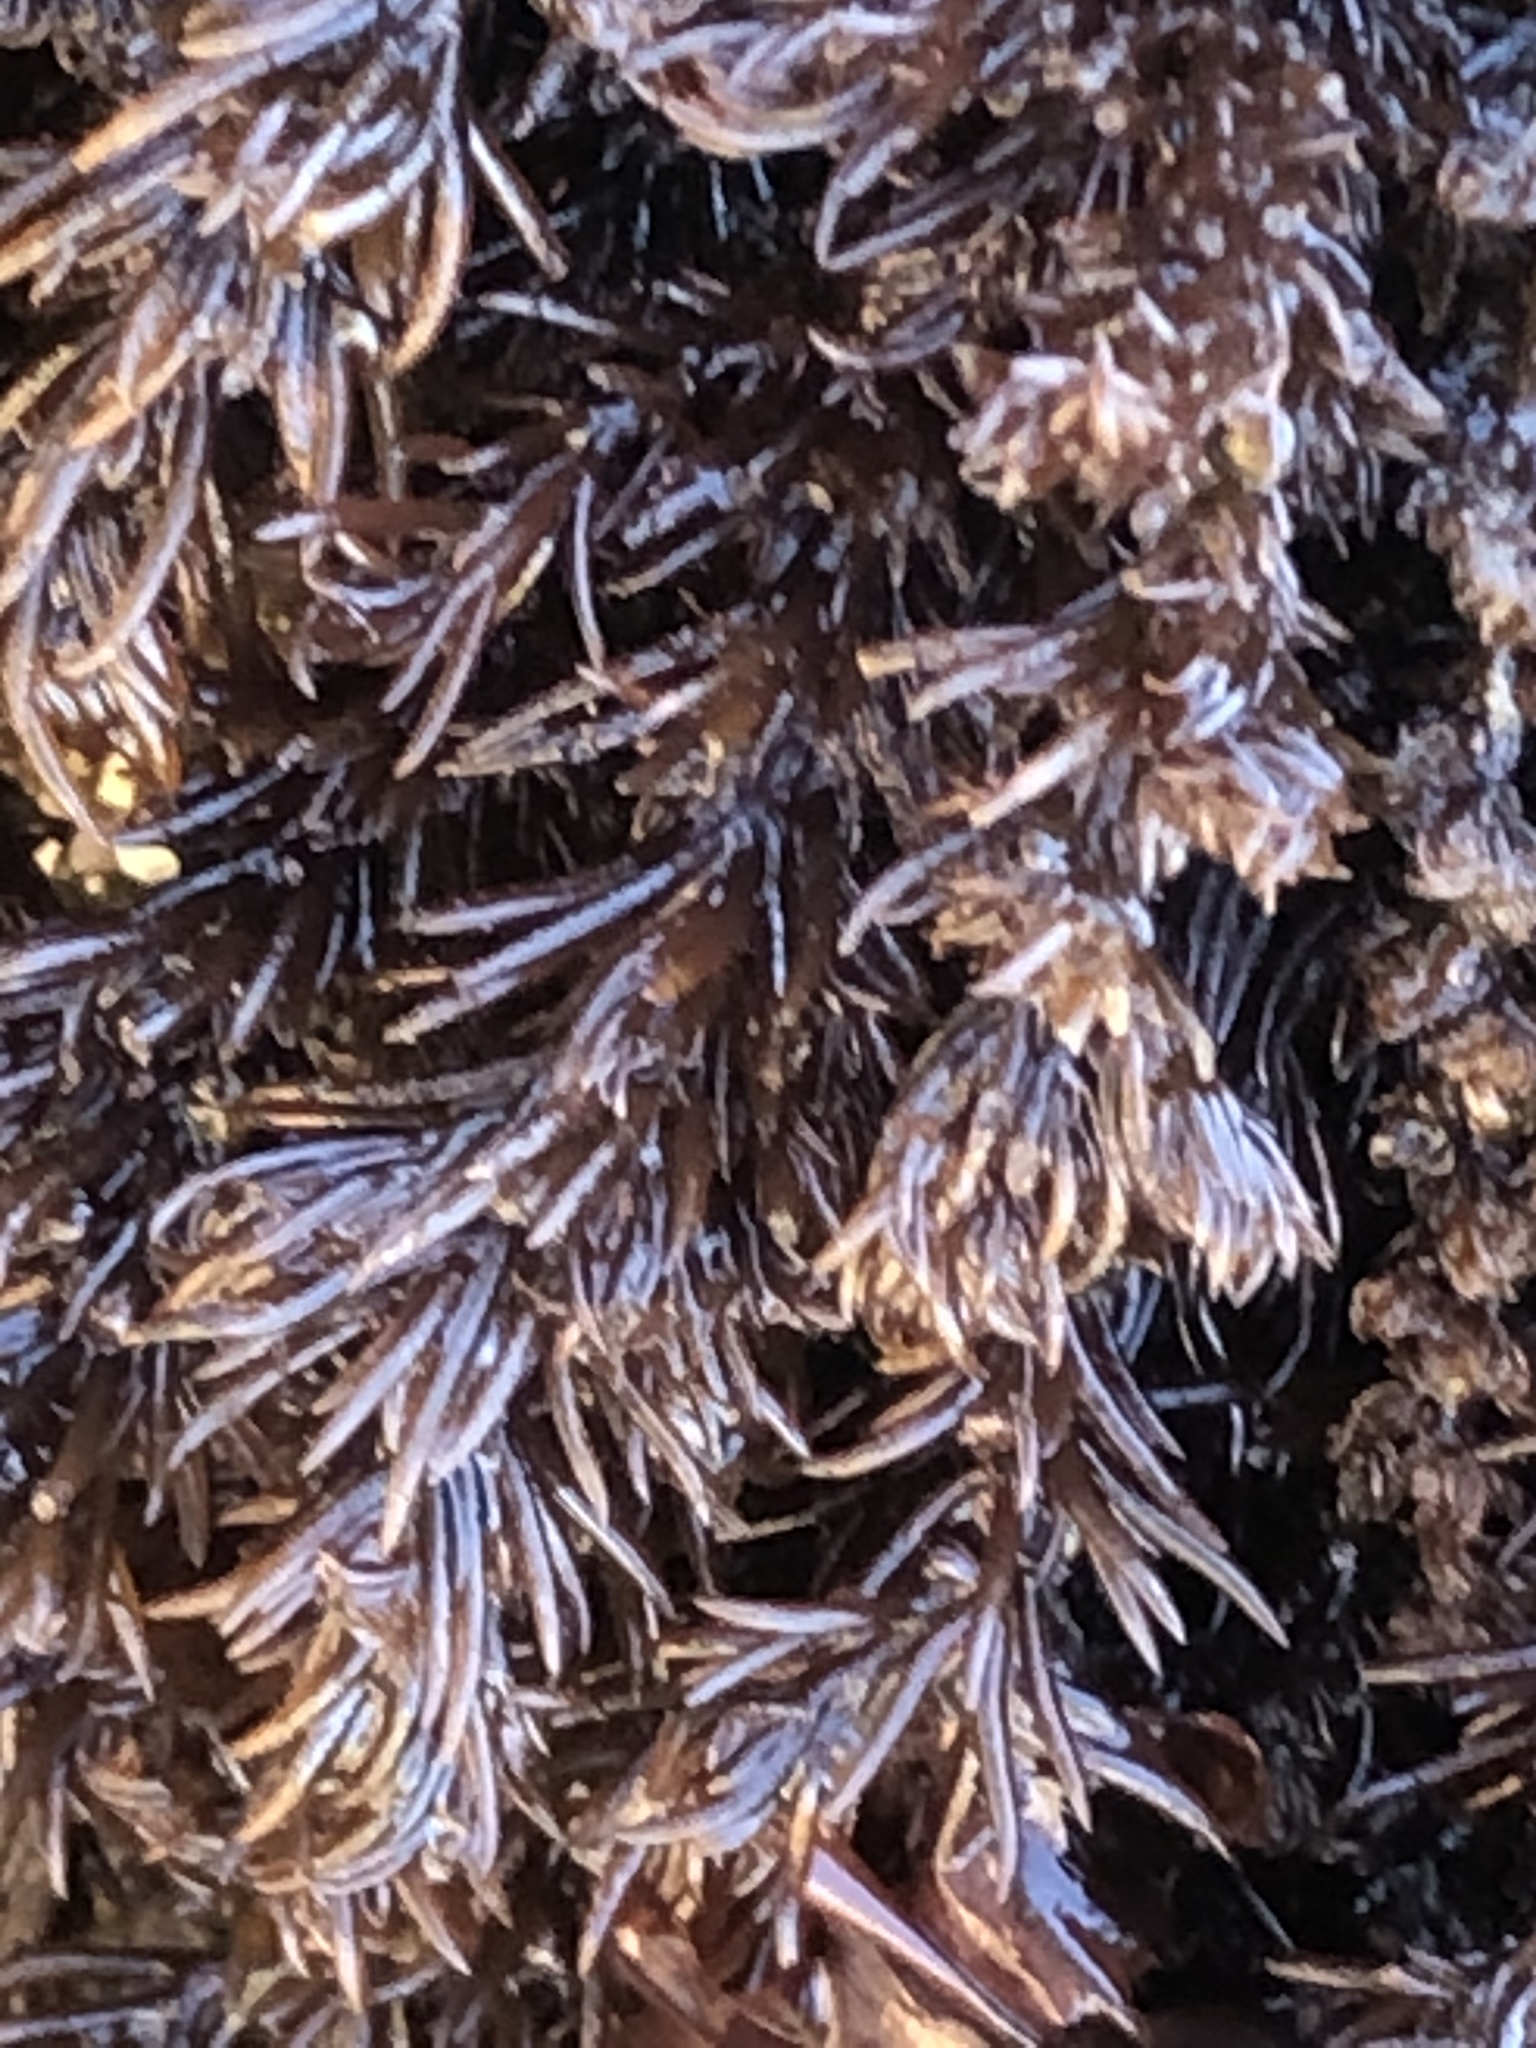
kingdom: Plantae
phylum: Rhodophyta
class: Florideophyceae
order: Ceramiales
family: Rhodomelaceae
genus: Neorhodomela
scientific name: Neorhodomela larix
